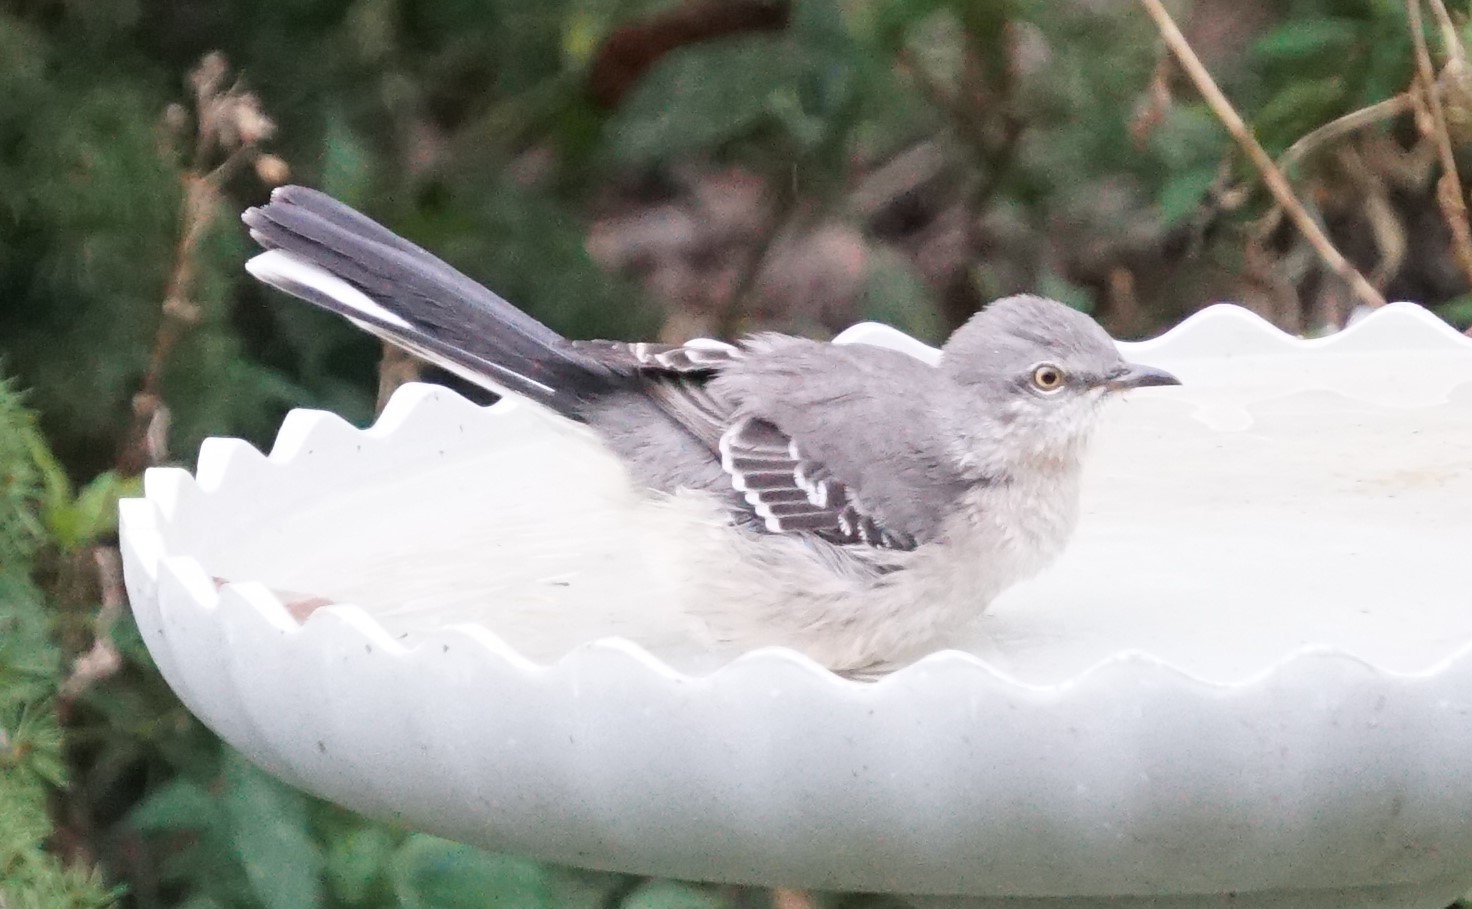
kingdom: Animalia
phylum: Chordata
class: Aves
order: Passeriformes
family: Mimidae
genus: Mimus
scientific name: Mimus polyglottos
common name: Northern mockingbird
